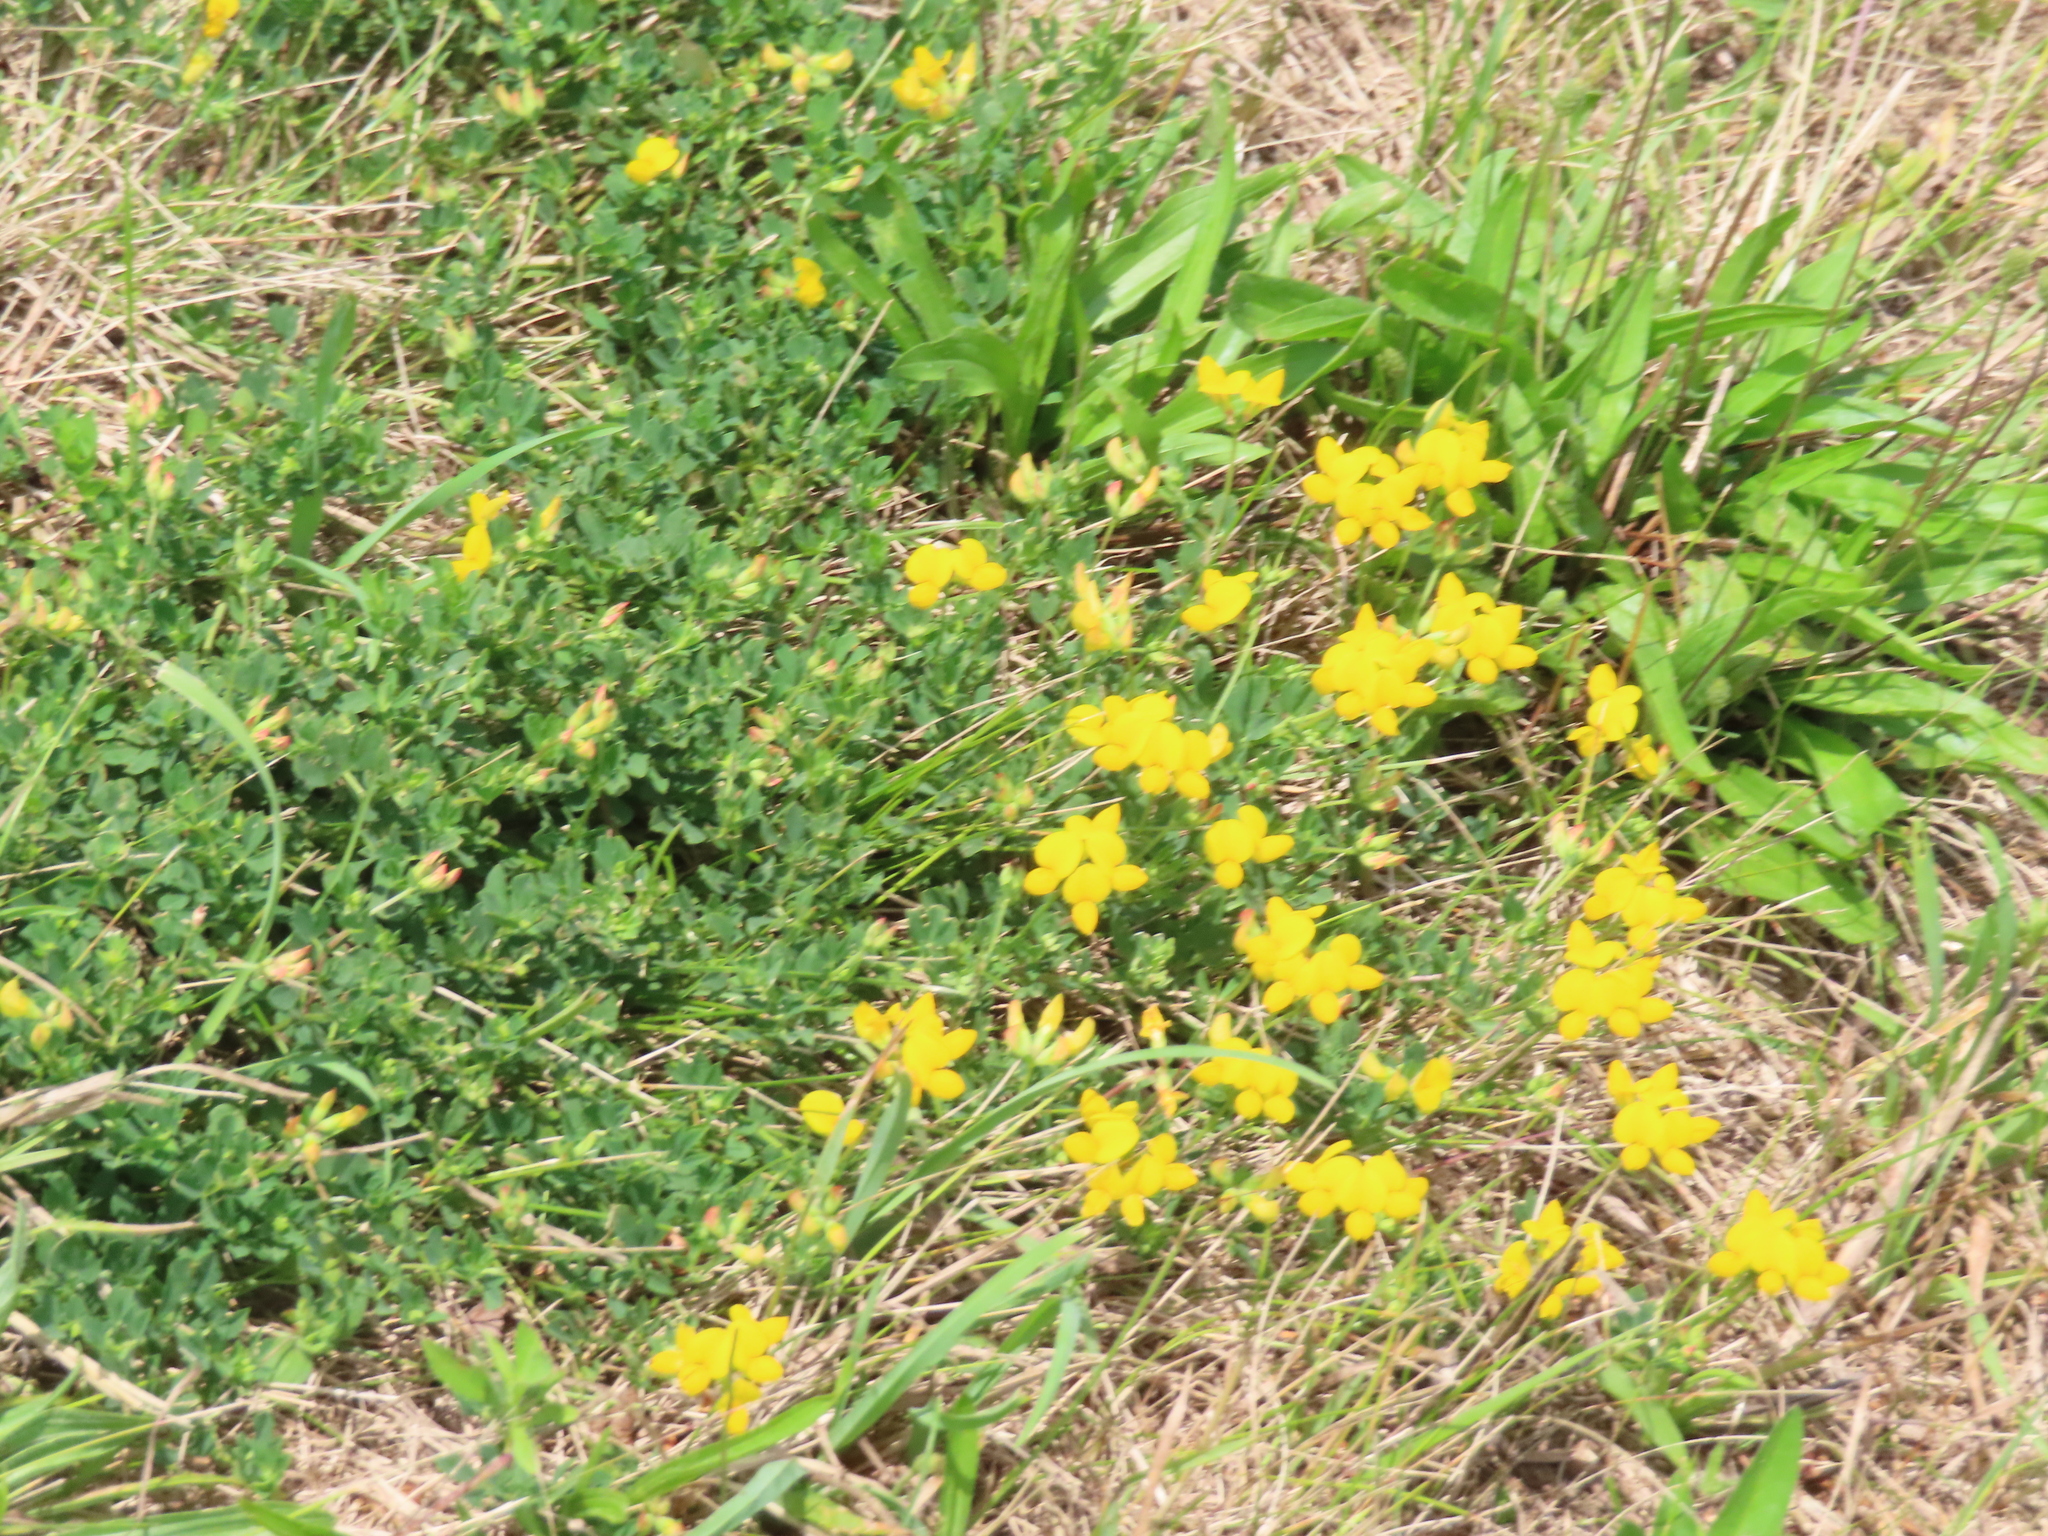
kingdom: Plantae
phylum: Tracheophyta
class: Magnoliopsida
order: Fabales
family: Fabaceae
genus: Lotus
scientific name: Lotus corniculatus
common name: Common bird's-foot-trefoil
